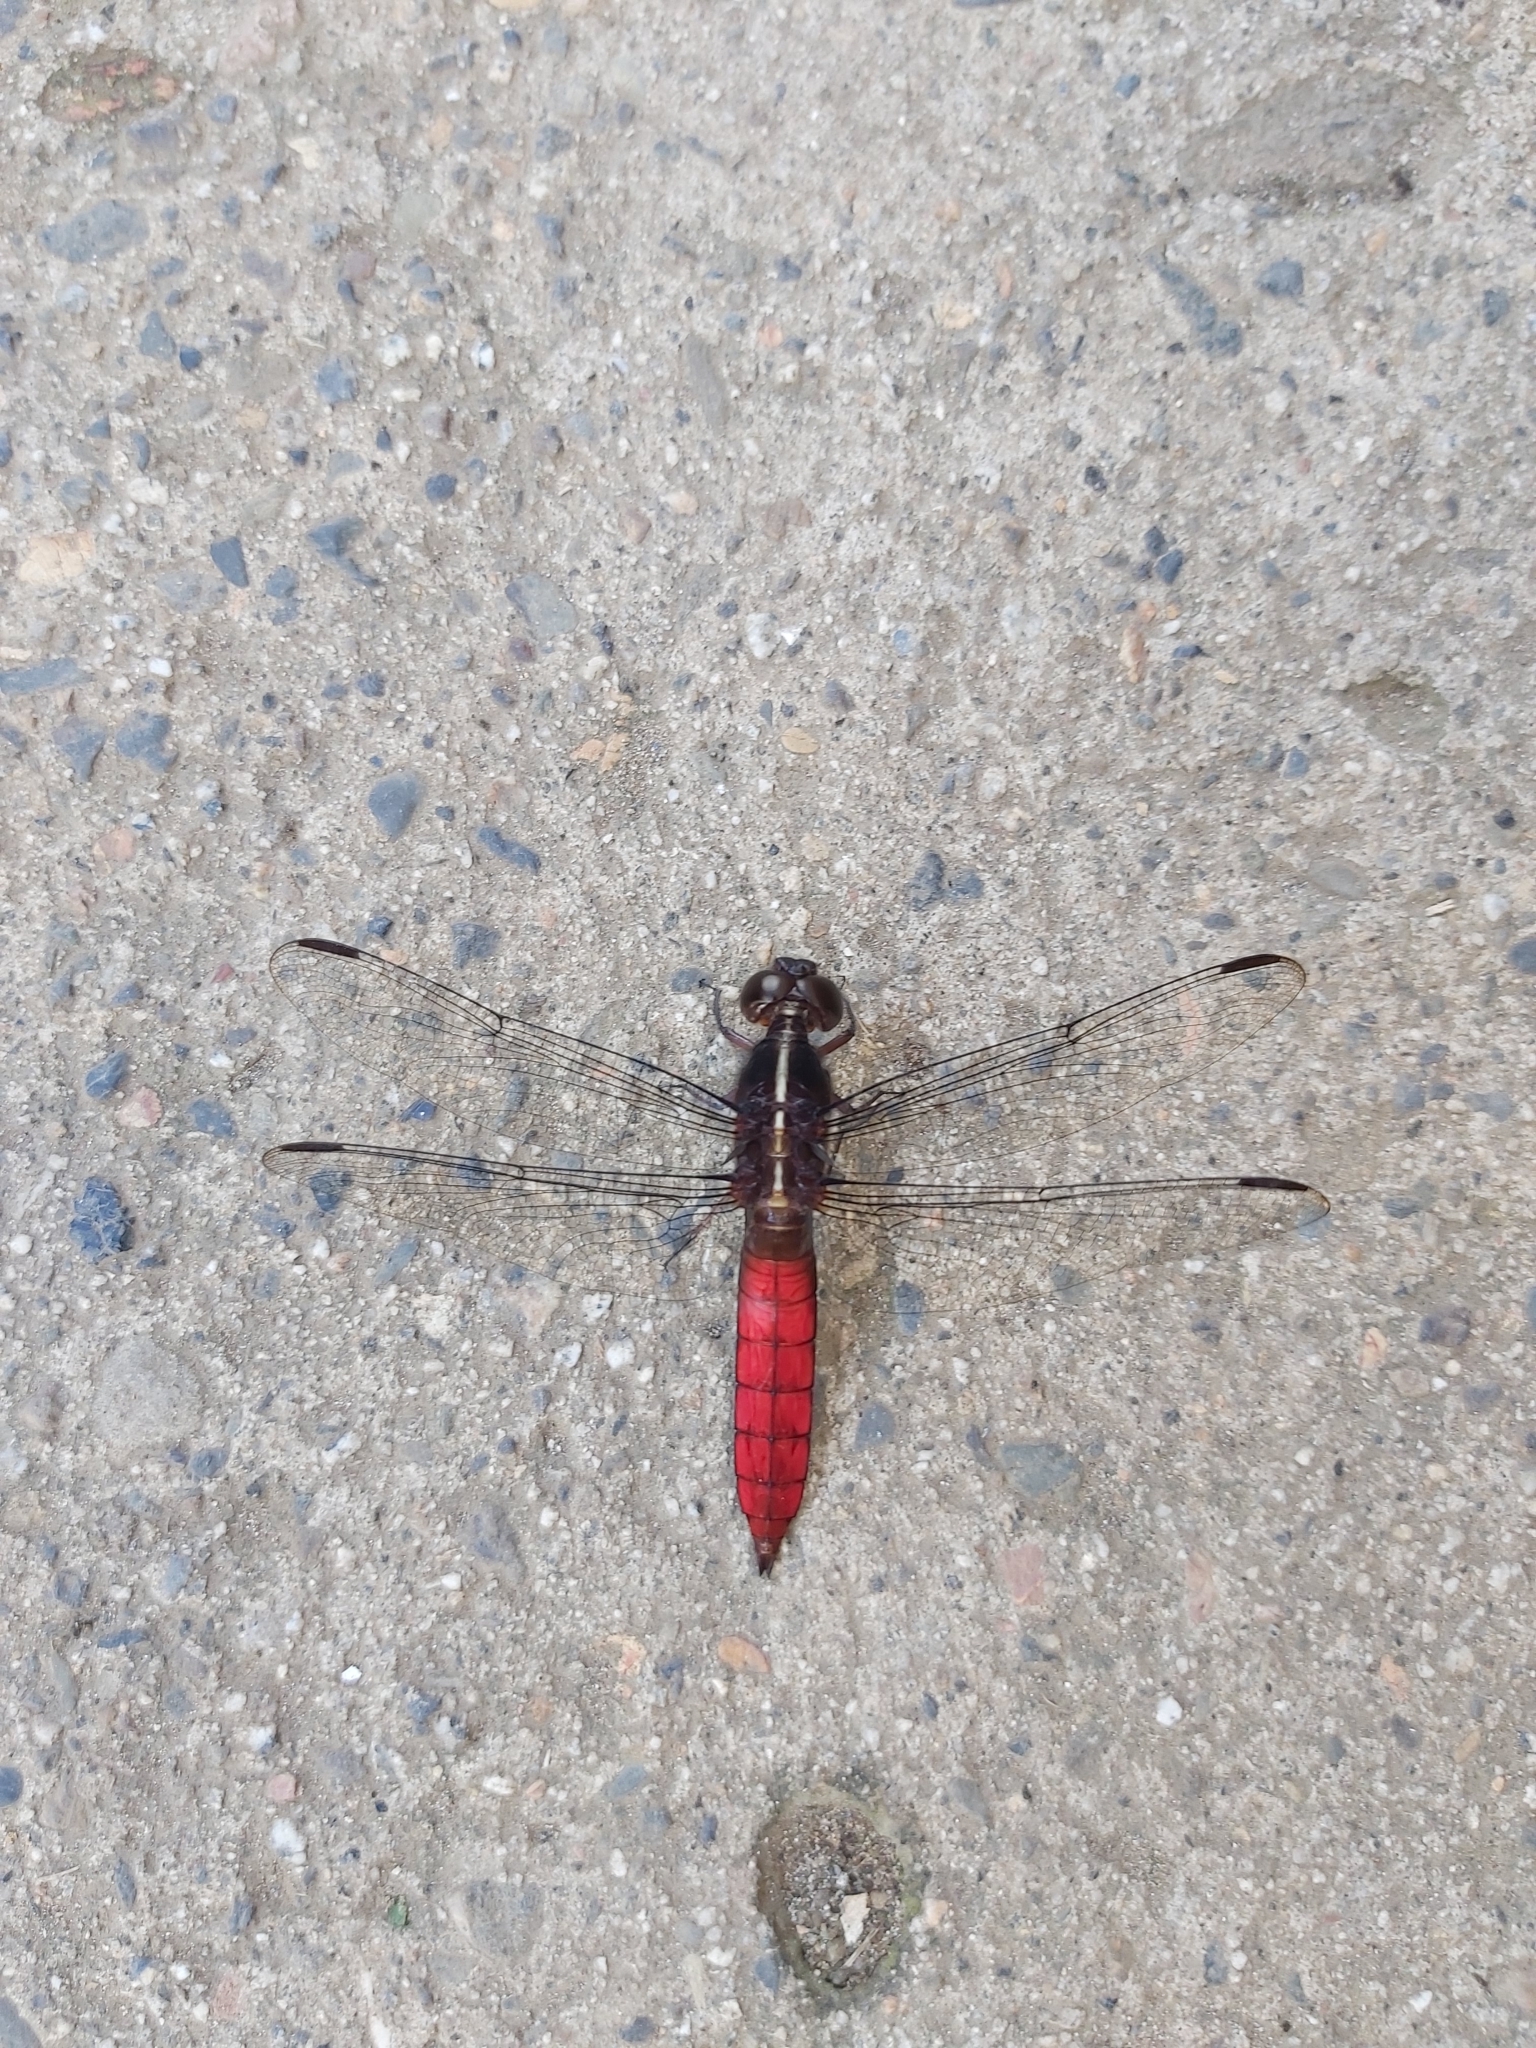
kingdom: Animalia
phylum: Arthropoda
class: Insecta
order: Odonata
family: Libellulidae
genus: Libellula
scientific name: Libellula herculea
